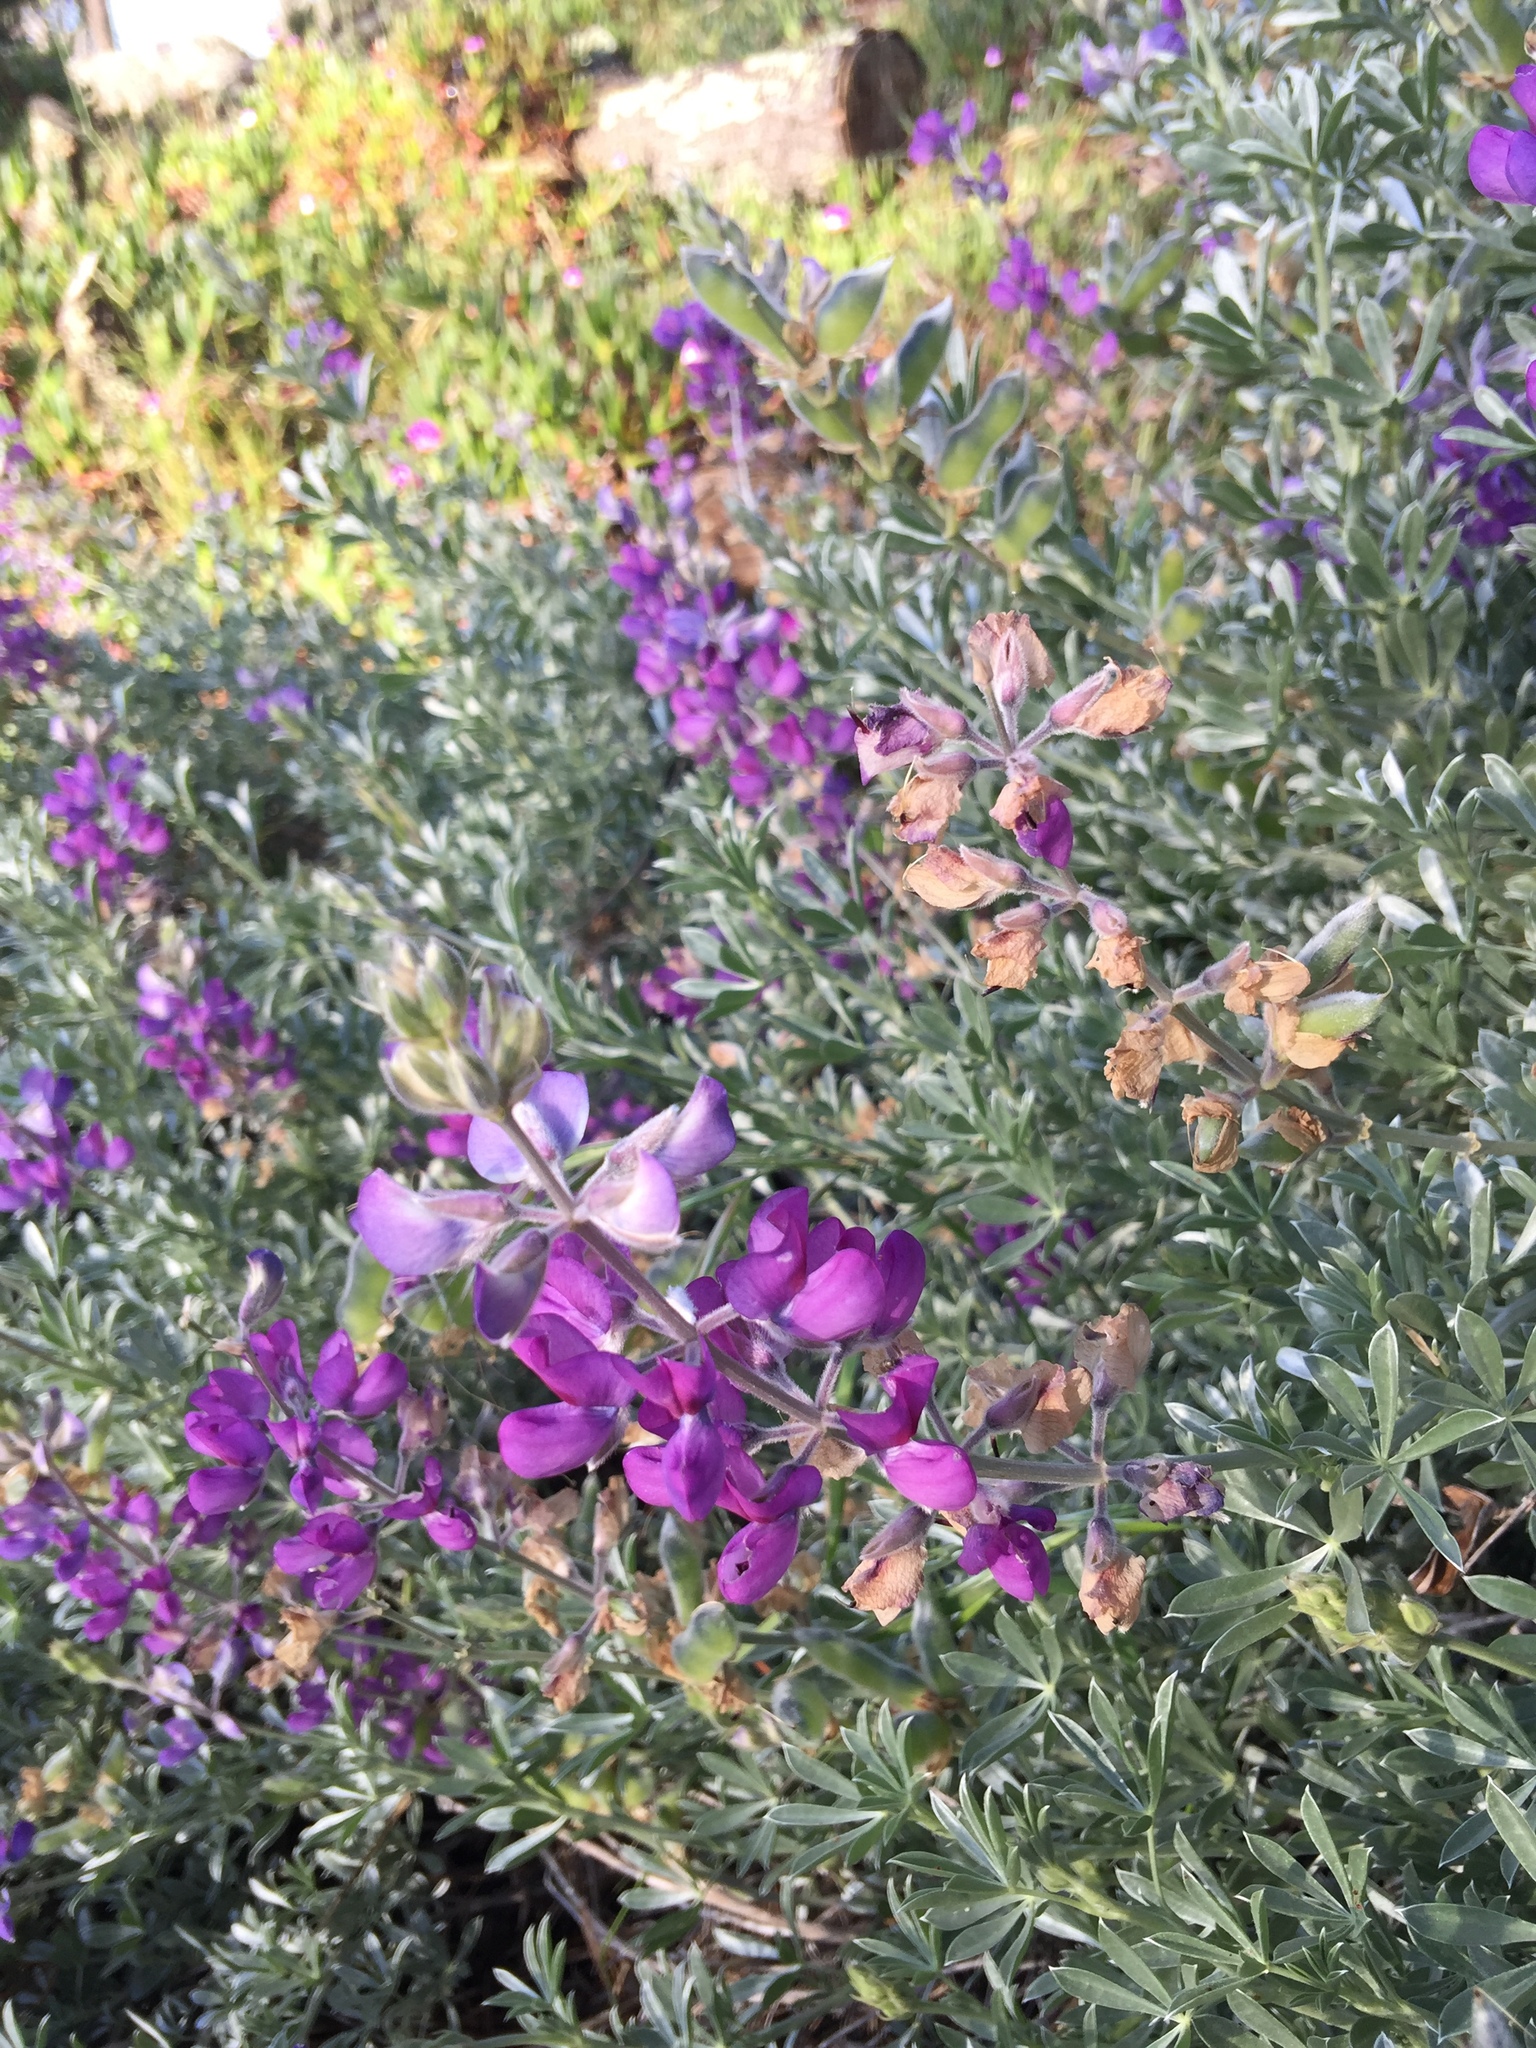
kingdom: Plantae
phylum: Tracheophyta
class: Magnoliopsida
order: Fabales
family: Fabaceae
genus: Lupinus
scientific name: Lupinus chamissonis
